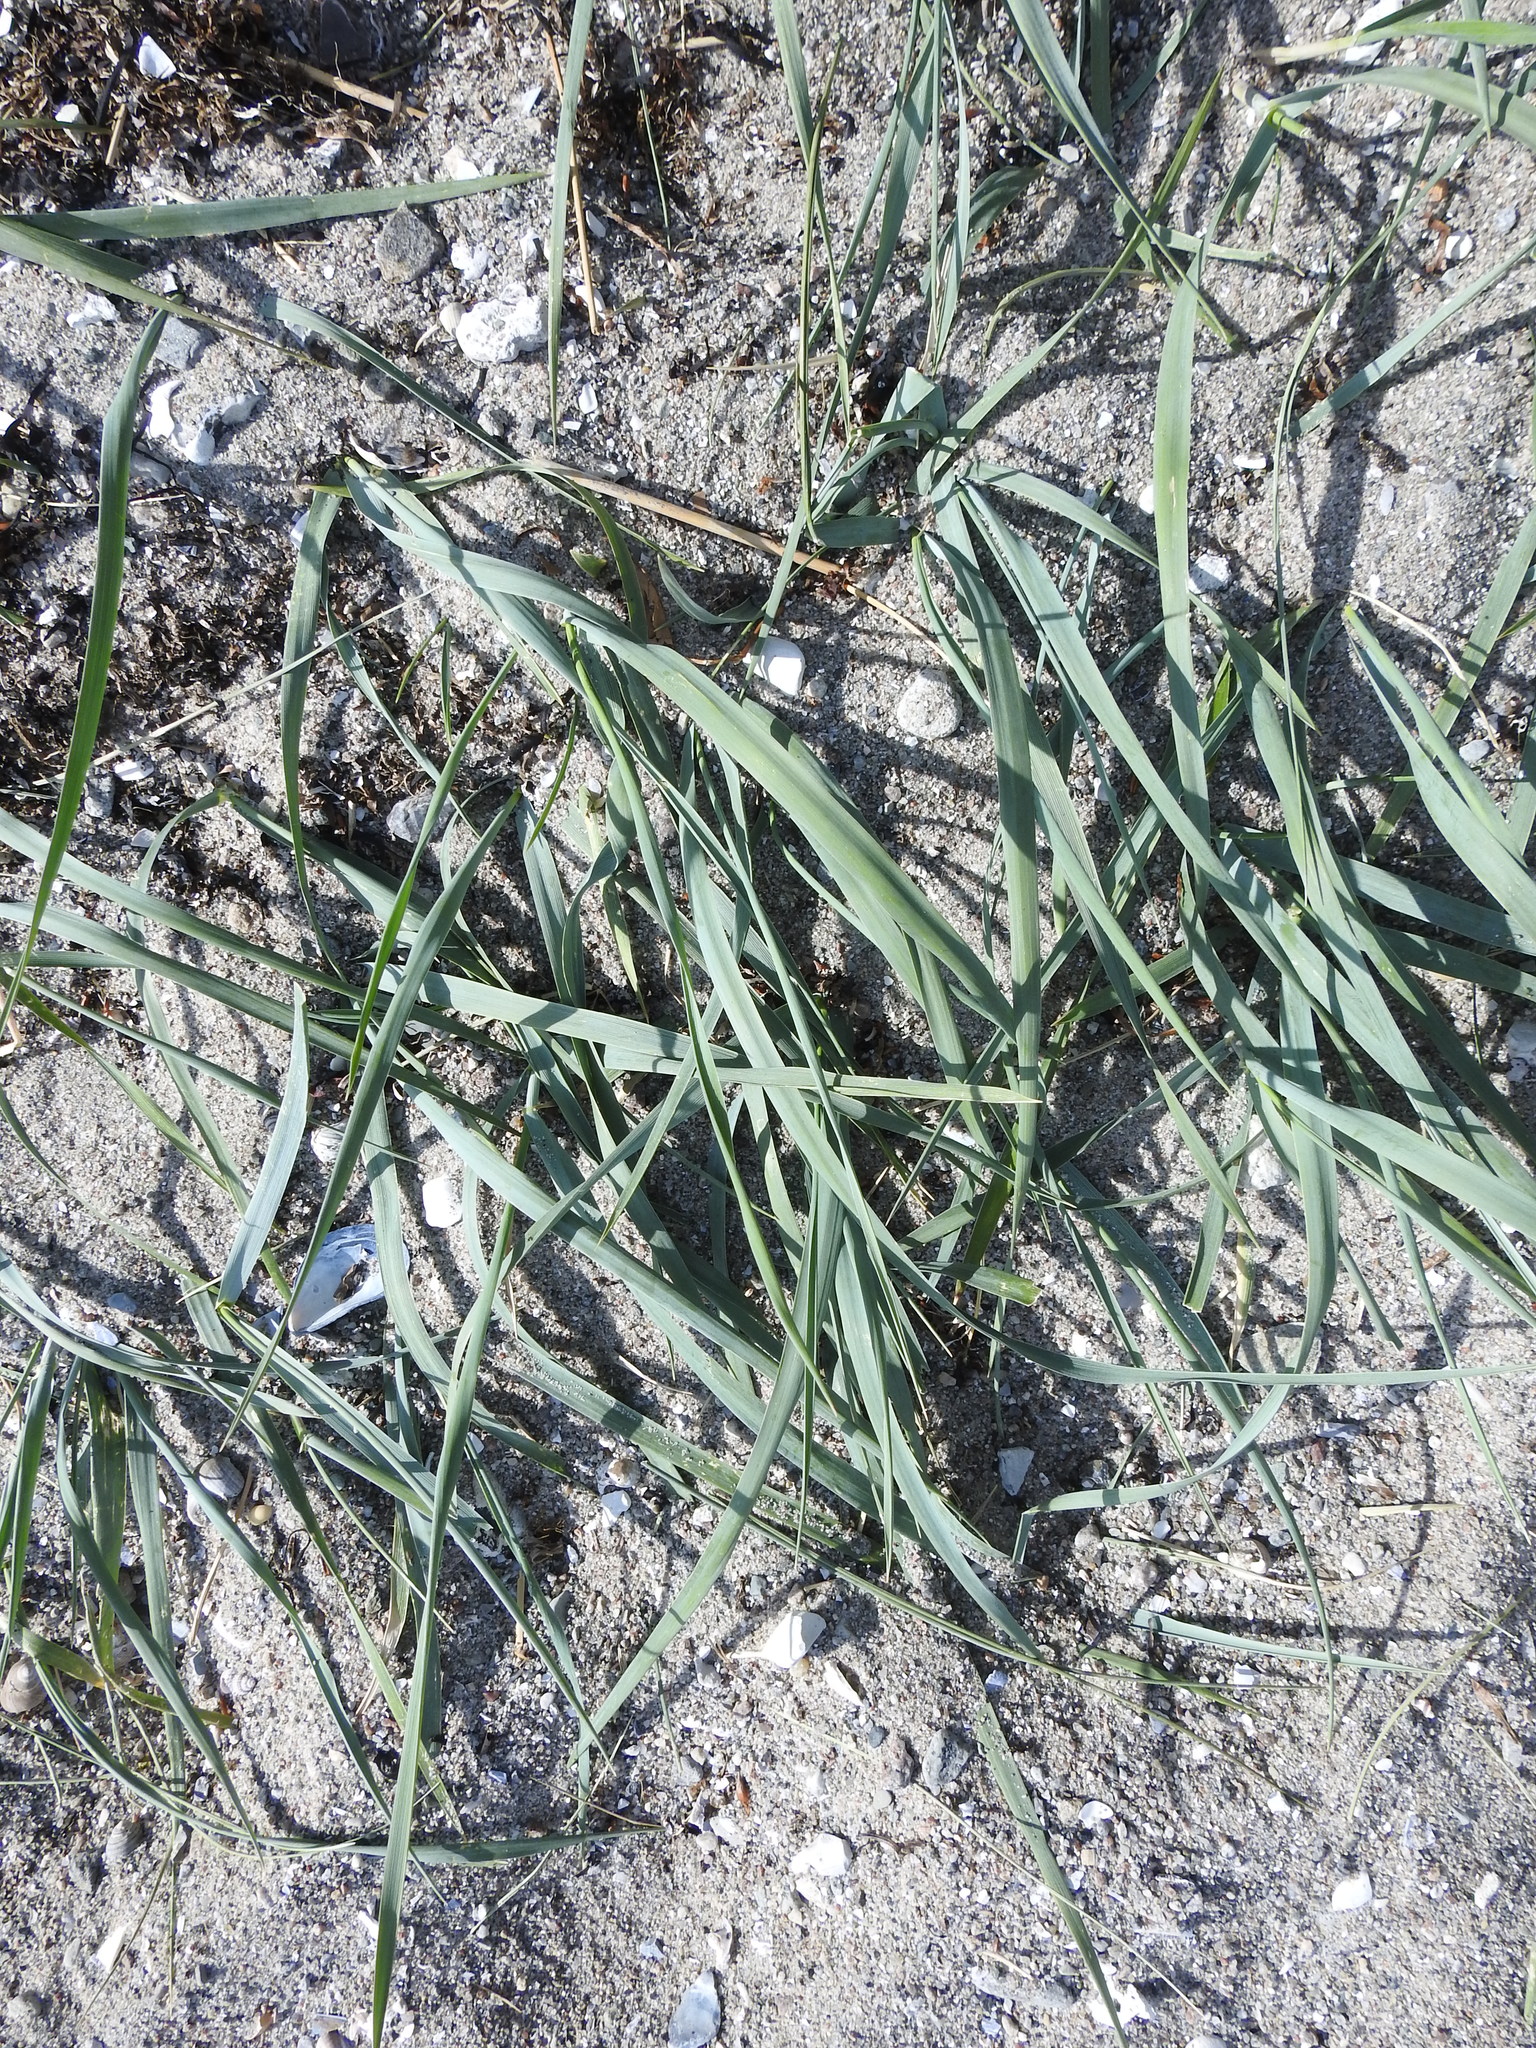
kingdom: Plantae
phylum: Tracheophyta
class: Liliopsida
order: Poales
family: Poaceae
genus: Leymus
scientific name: Leymus arenarius
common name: Lyme-grass
